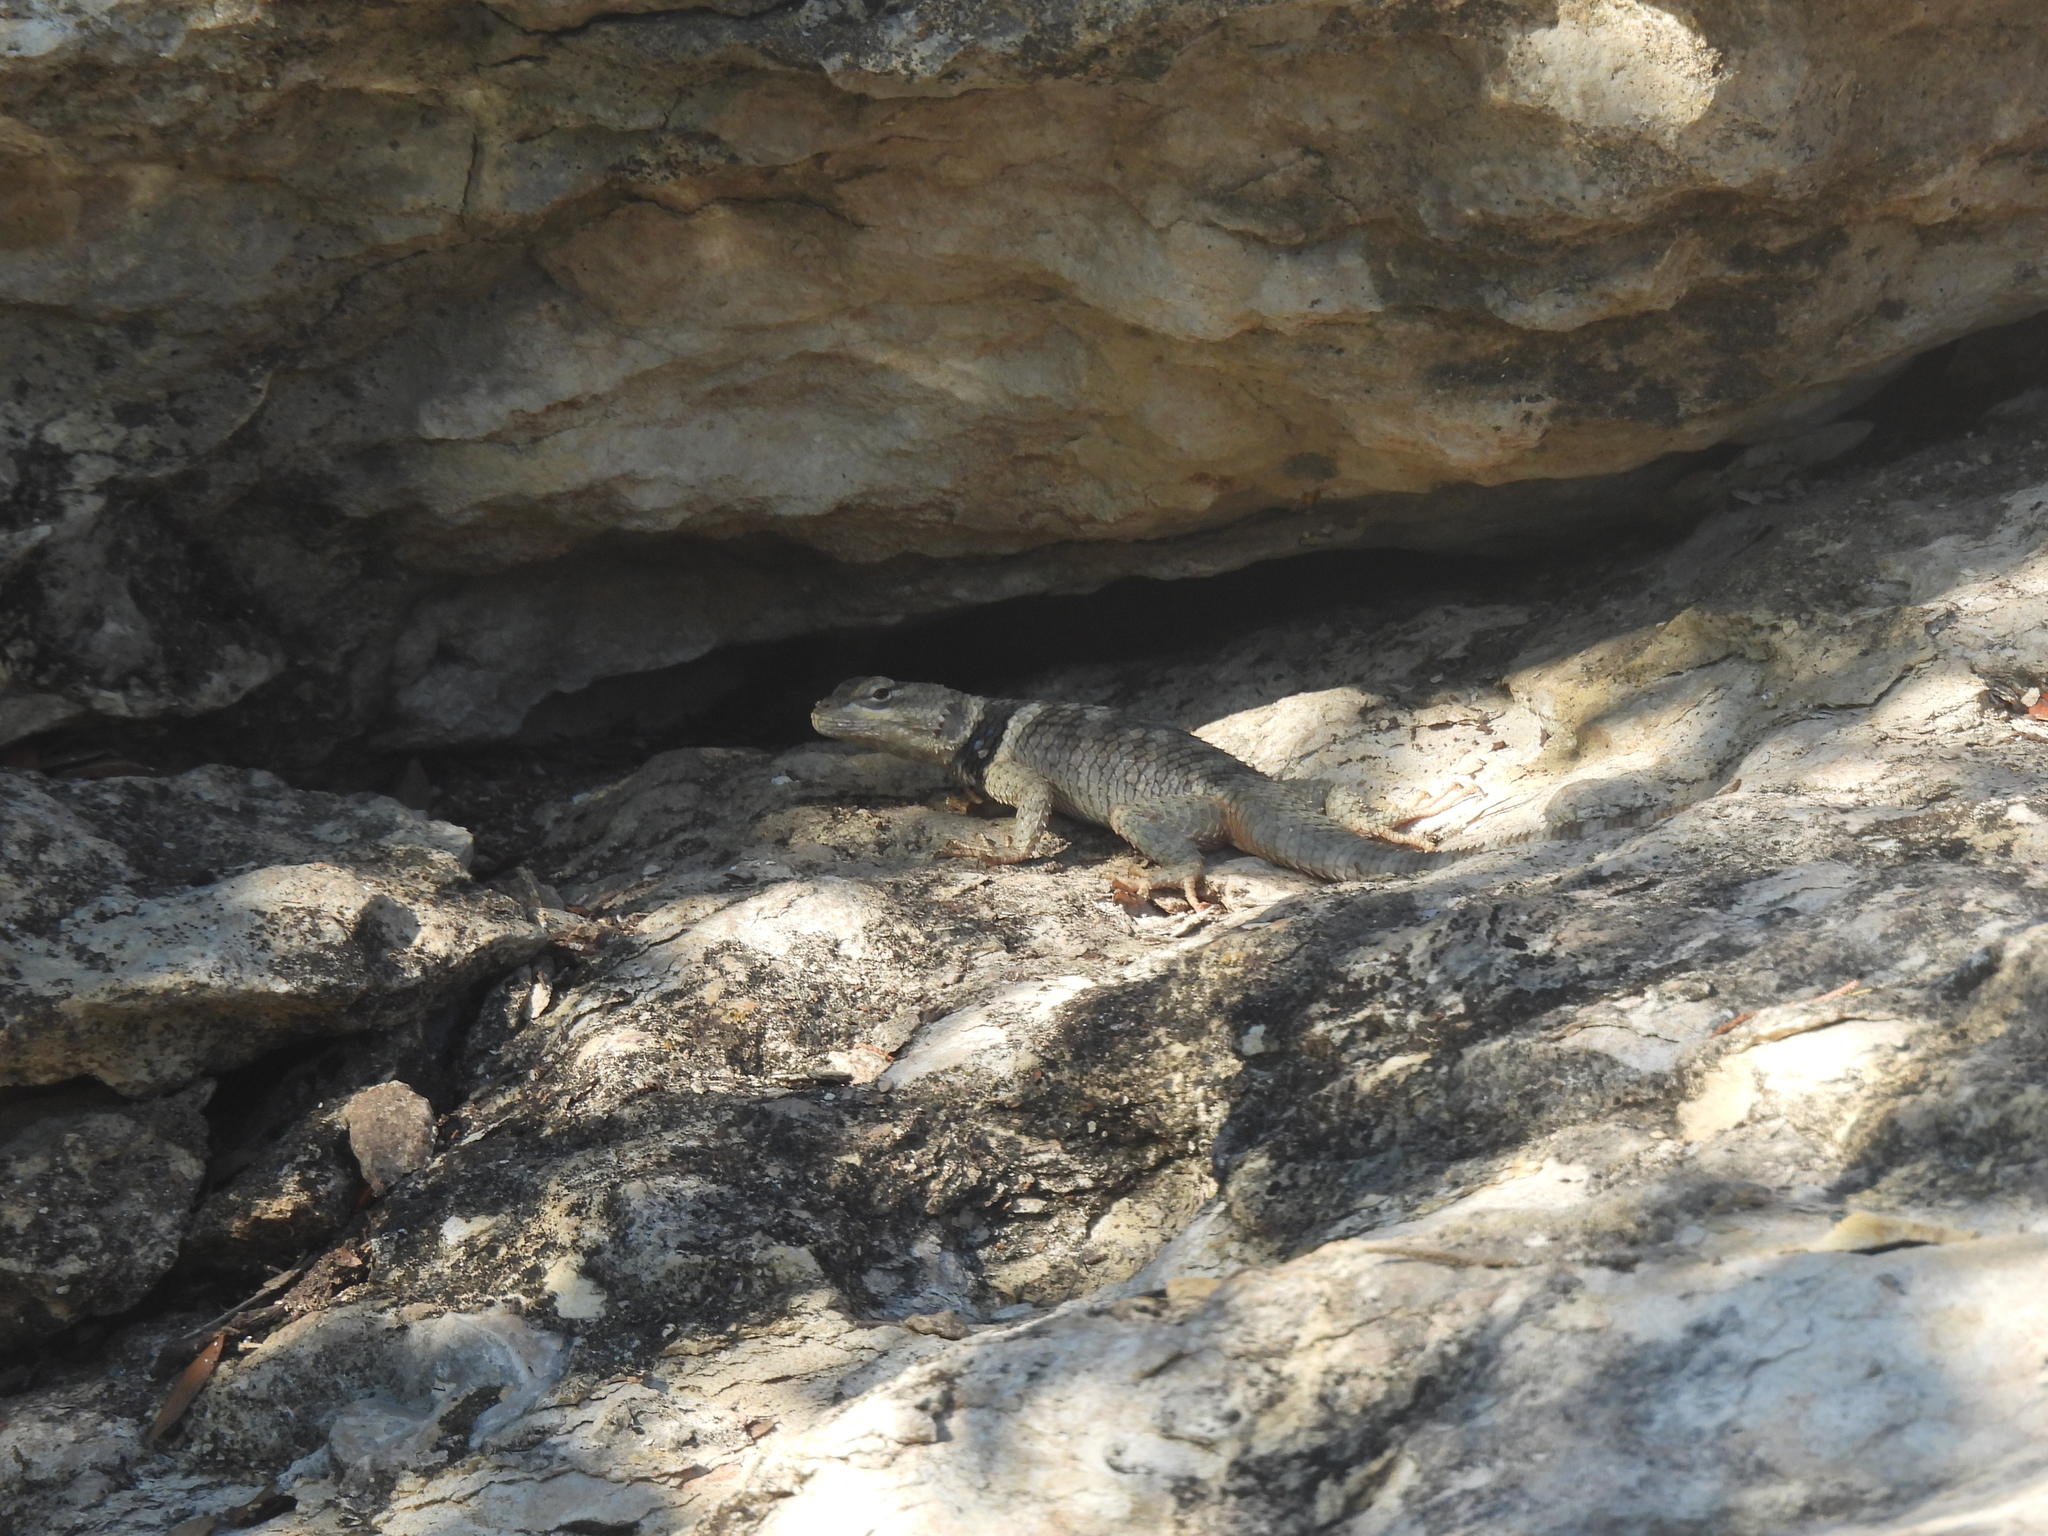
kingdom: Animalia
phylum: Chordata
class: Squamata
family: Phrynosomatidae
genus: Sceloporus
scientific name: Sceloporus poinsettii
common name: Crevice spiny lizard
